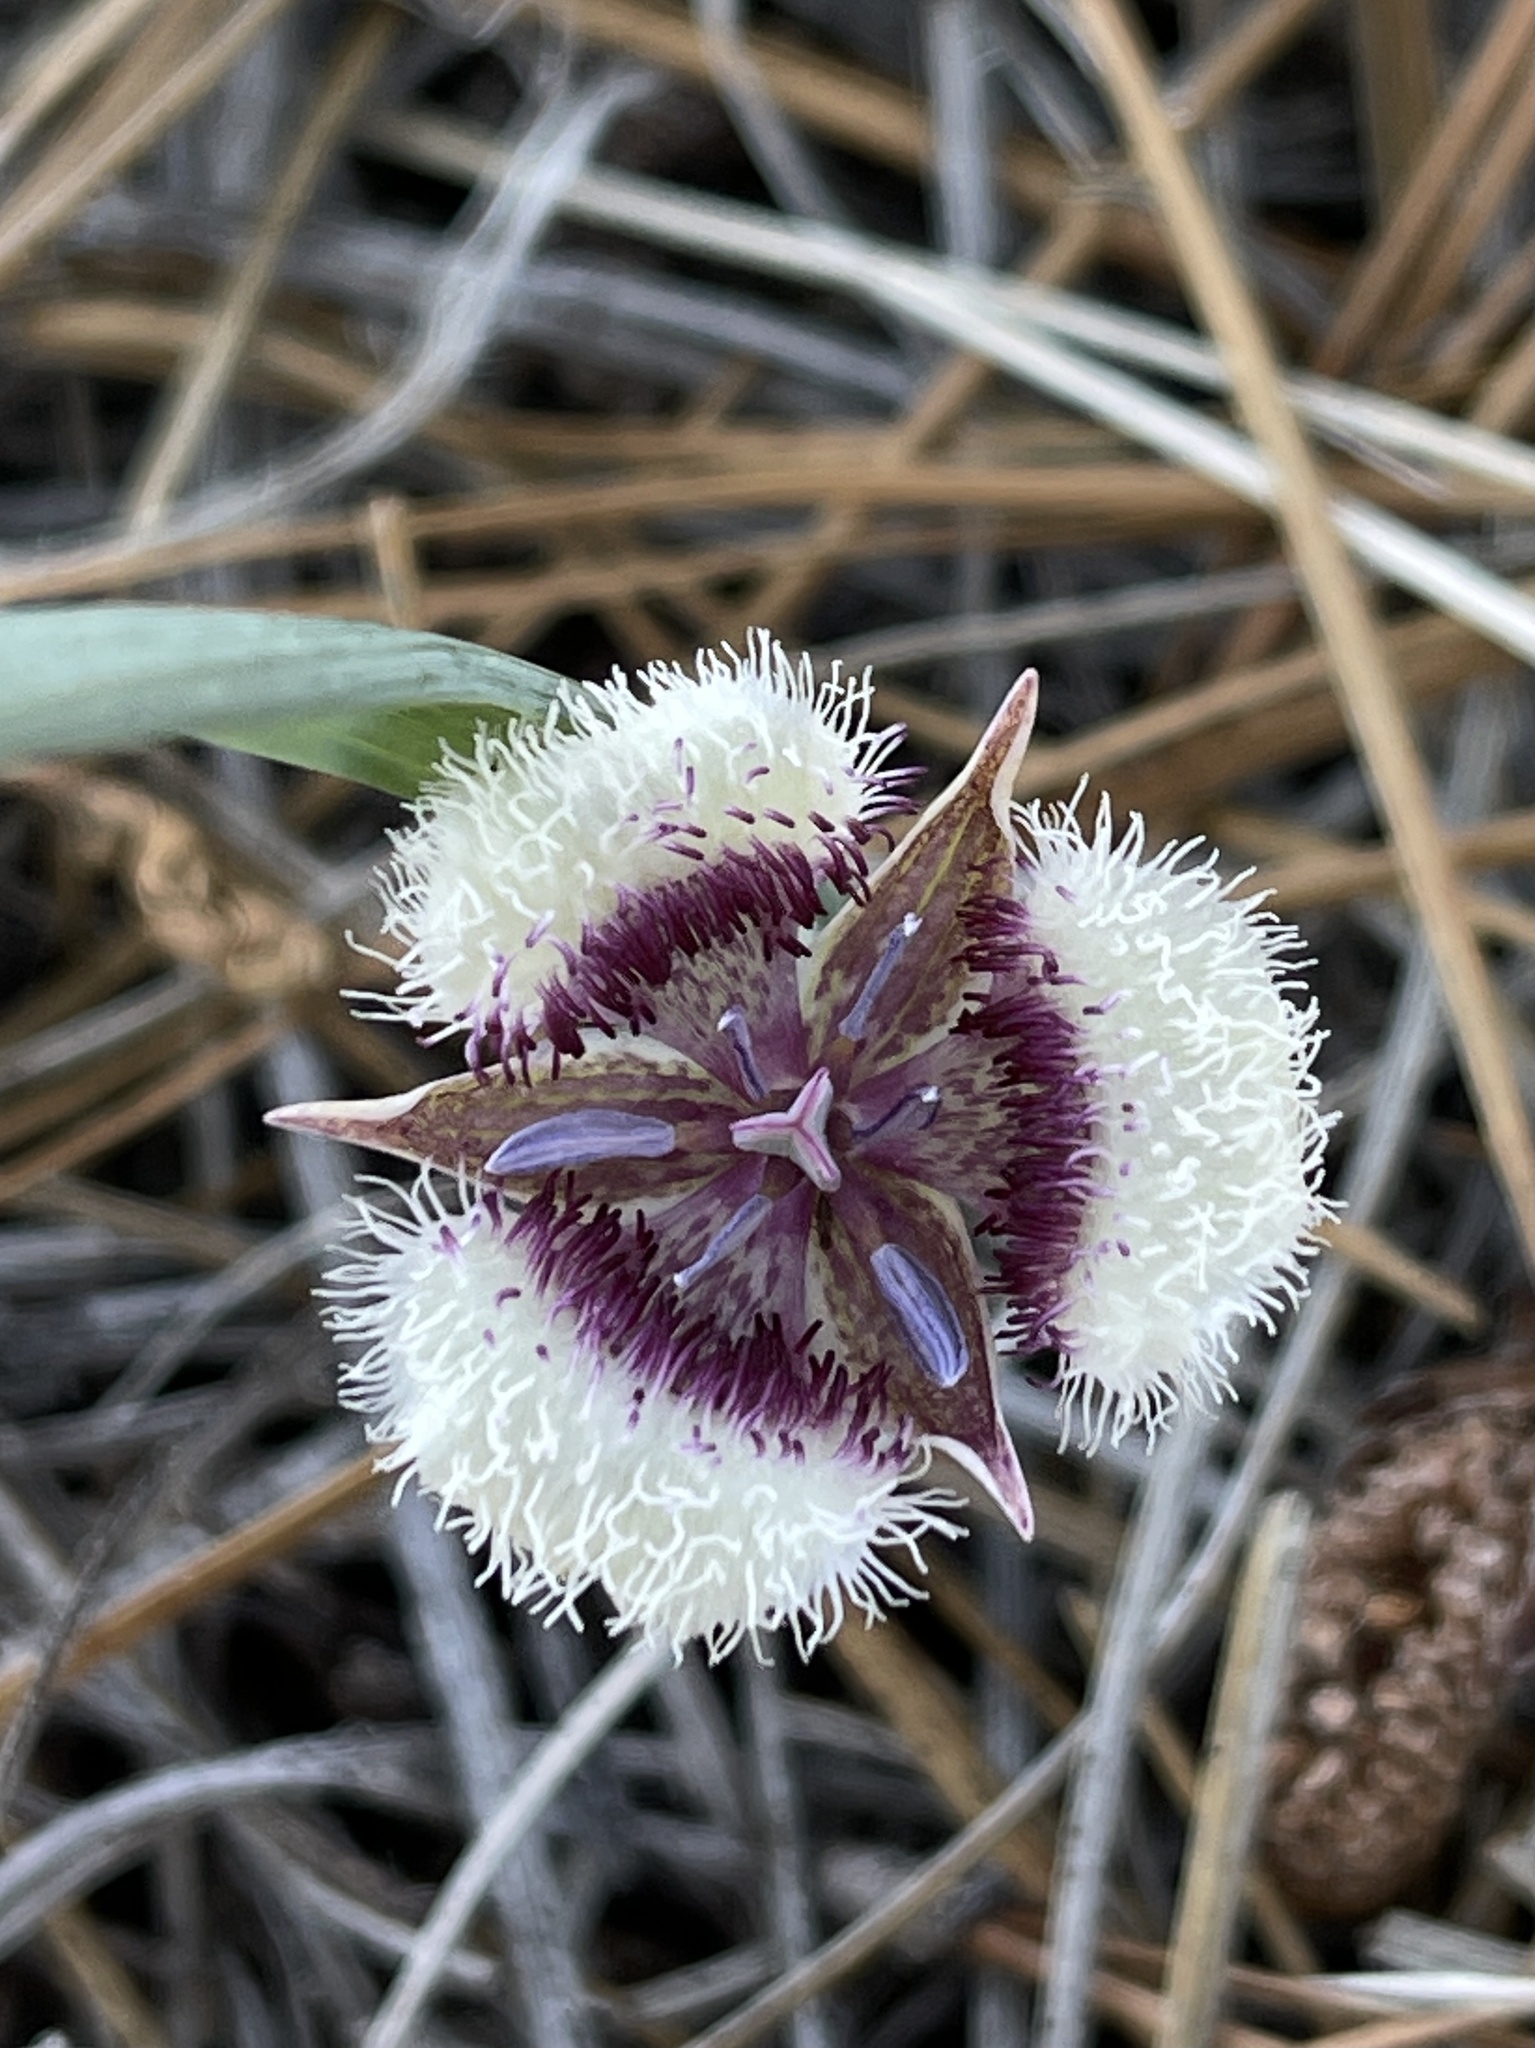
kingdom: Plantae
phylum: Tracheophyta
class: Liliopsida
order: Liliales
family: Liliaceae
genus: Calochortus
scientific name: Calochortus elegans
